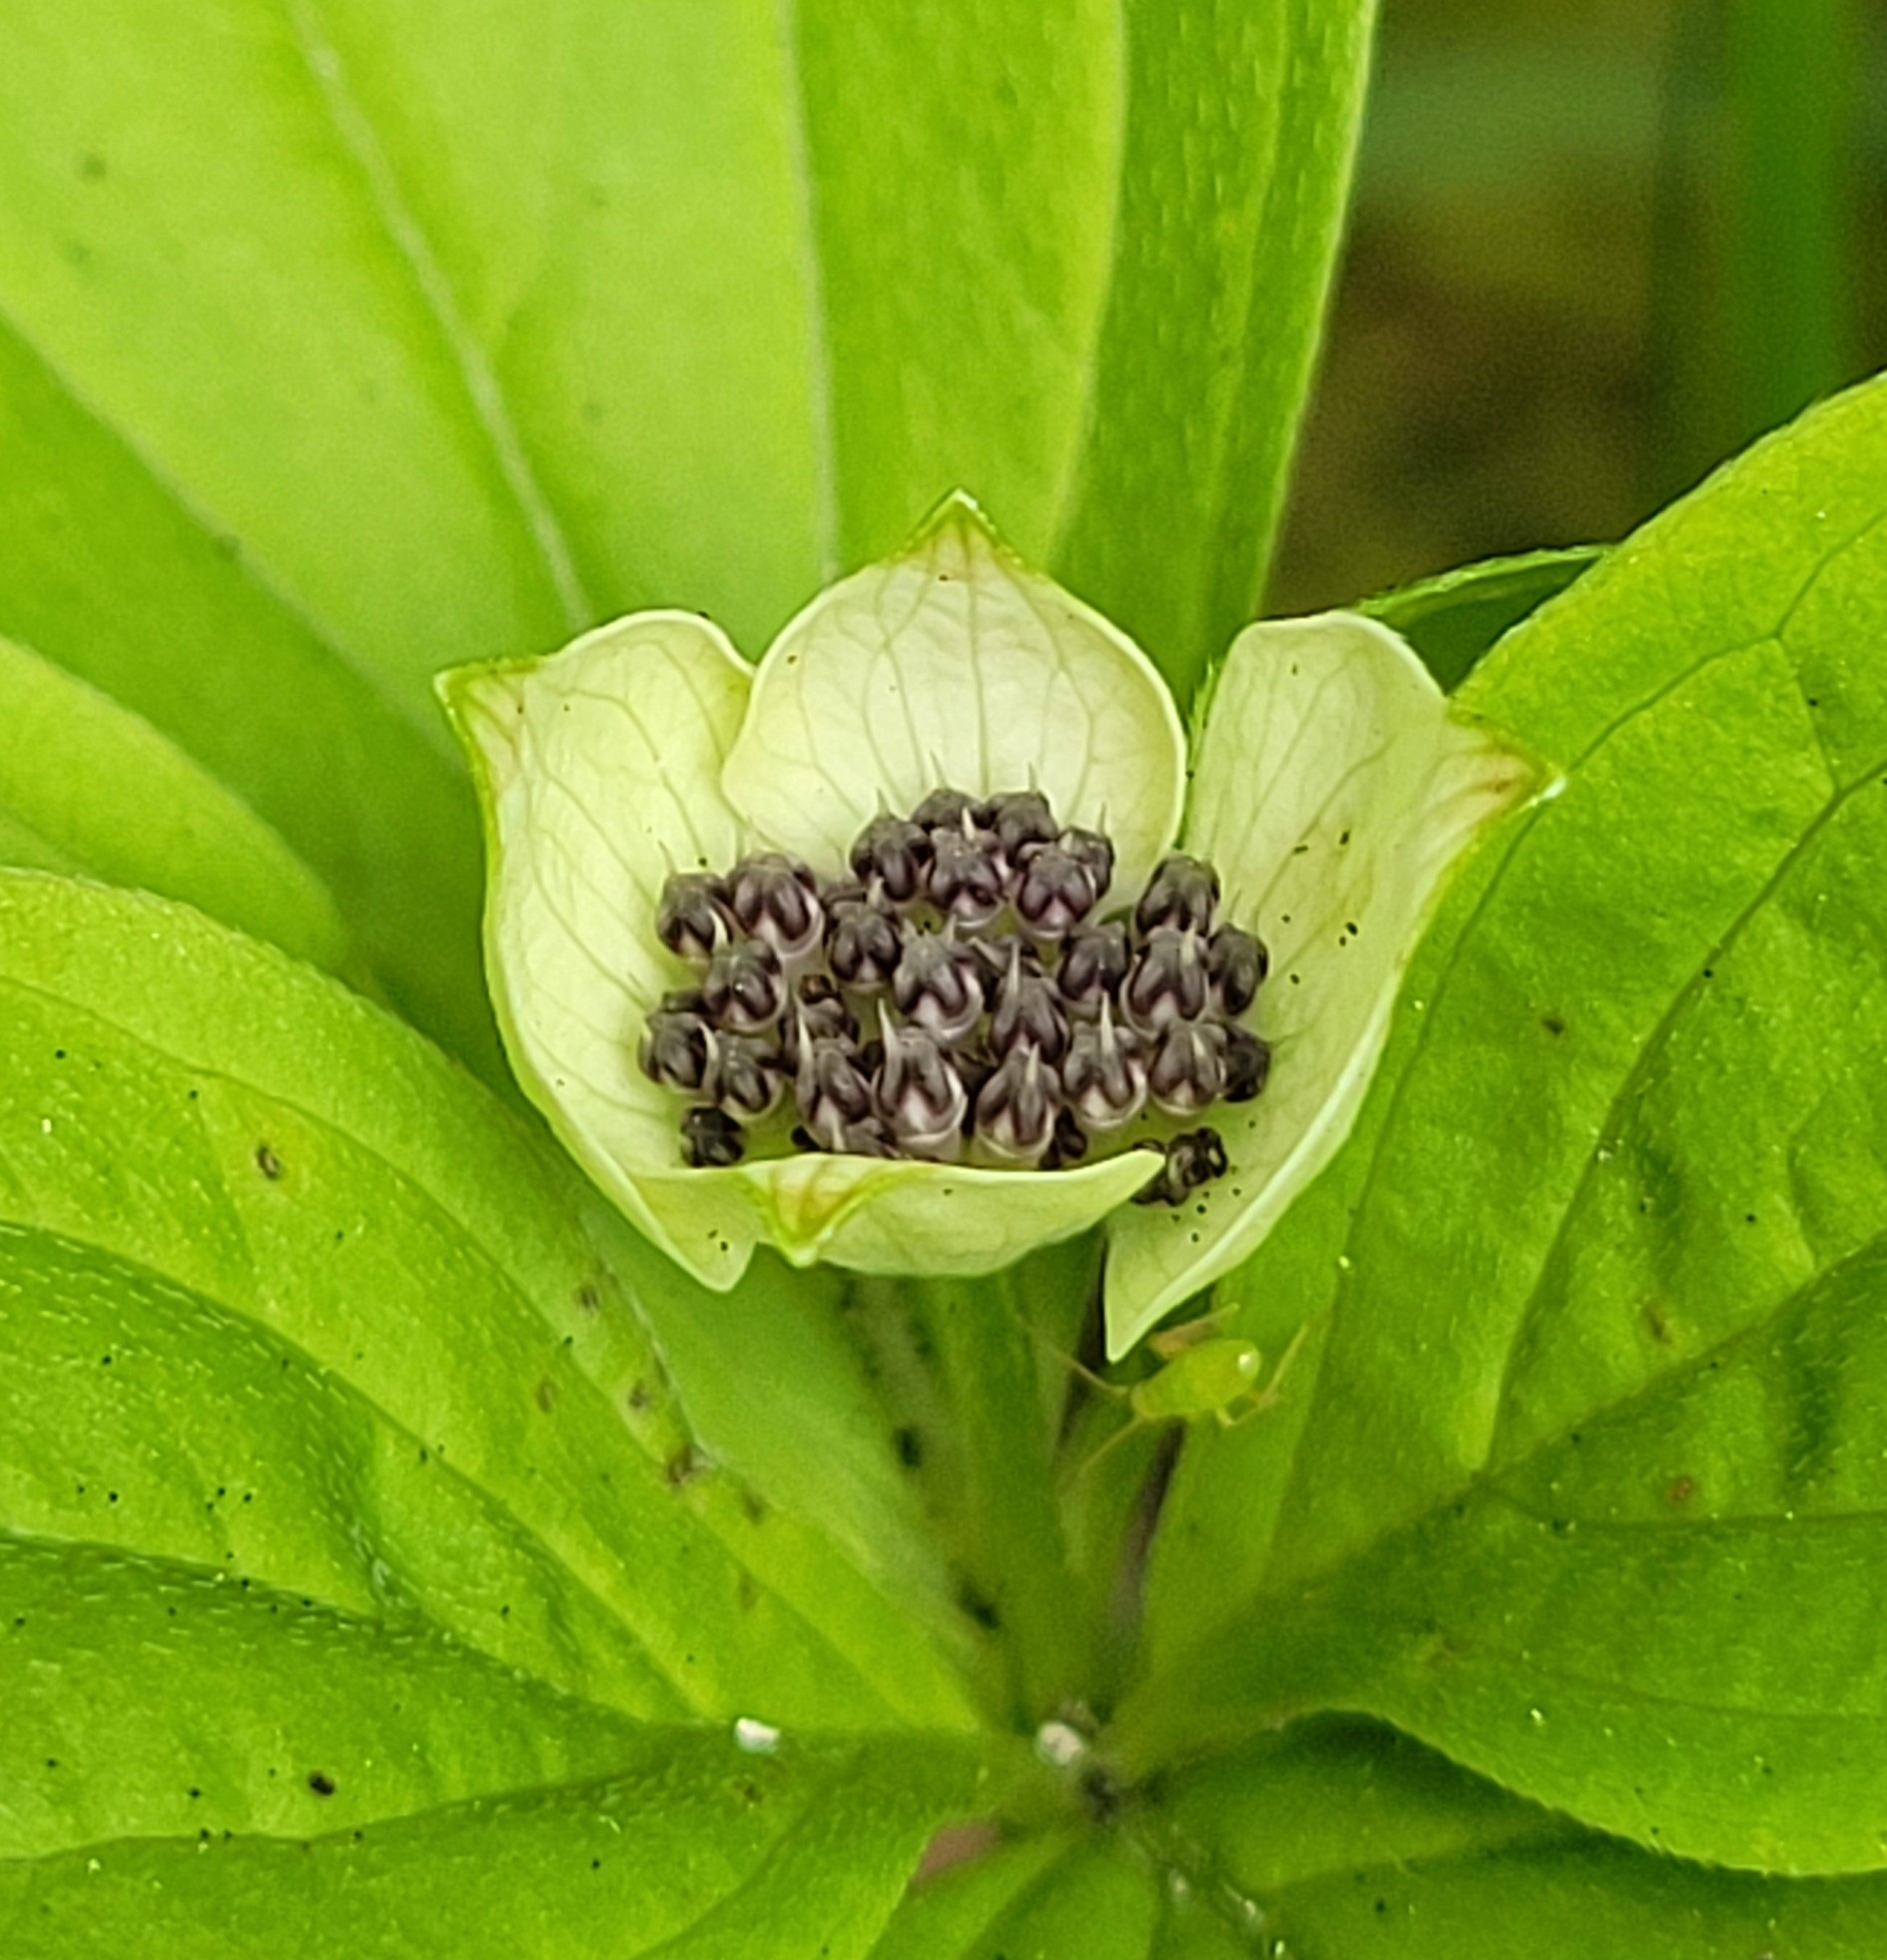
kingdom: Plantae
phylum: Tracheophyta
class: Magnoliopsida
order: Cornales
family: Cornaceae
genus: Cornus
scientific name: Cornus unalaschkensis
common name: Alaska bunchberry
